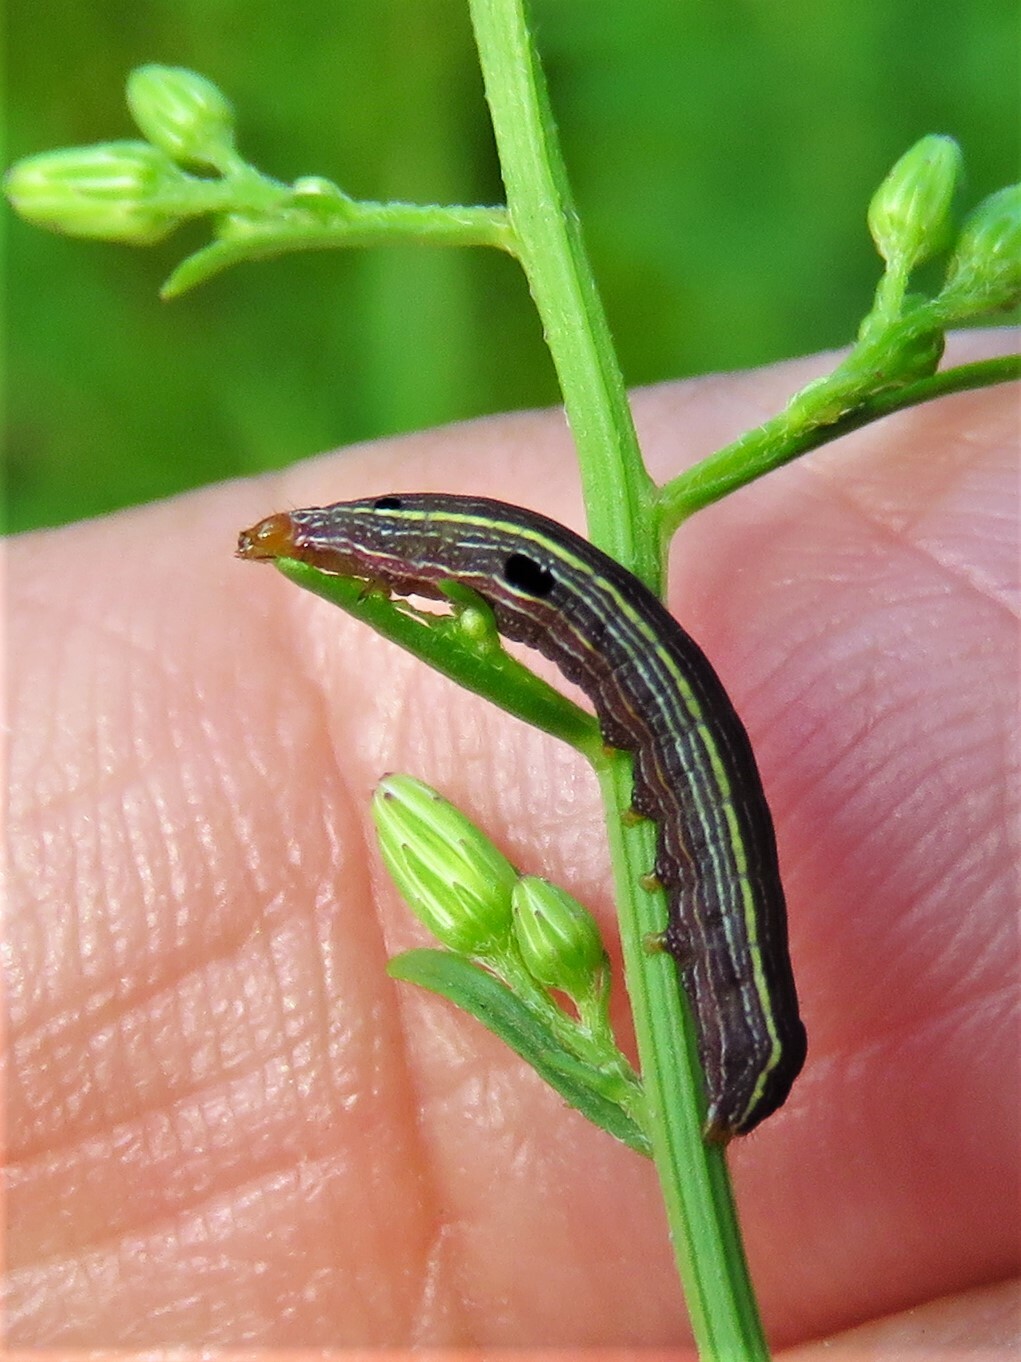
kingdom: Animalia
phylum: Arthropoda
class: Insecta
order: Lepidoptera
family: Noctuidae
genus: Spodoptera
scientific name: Spodoptera ornithogalli
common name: Yellow-striped armyworm
